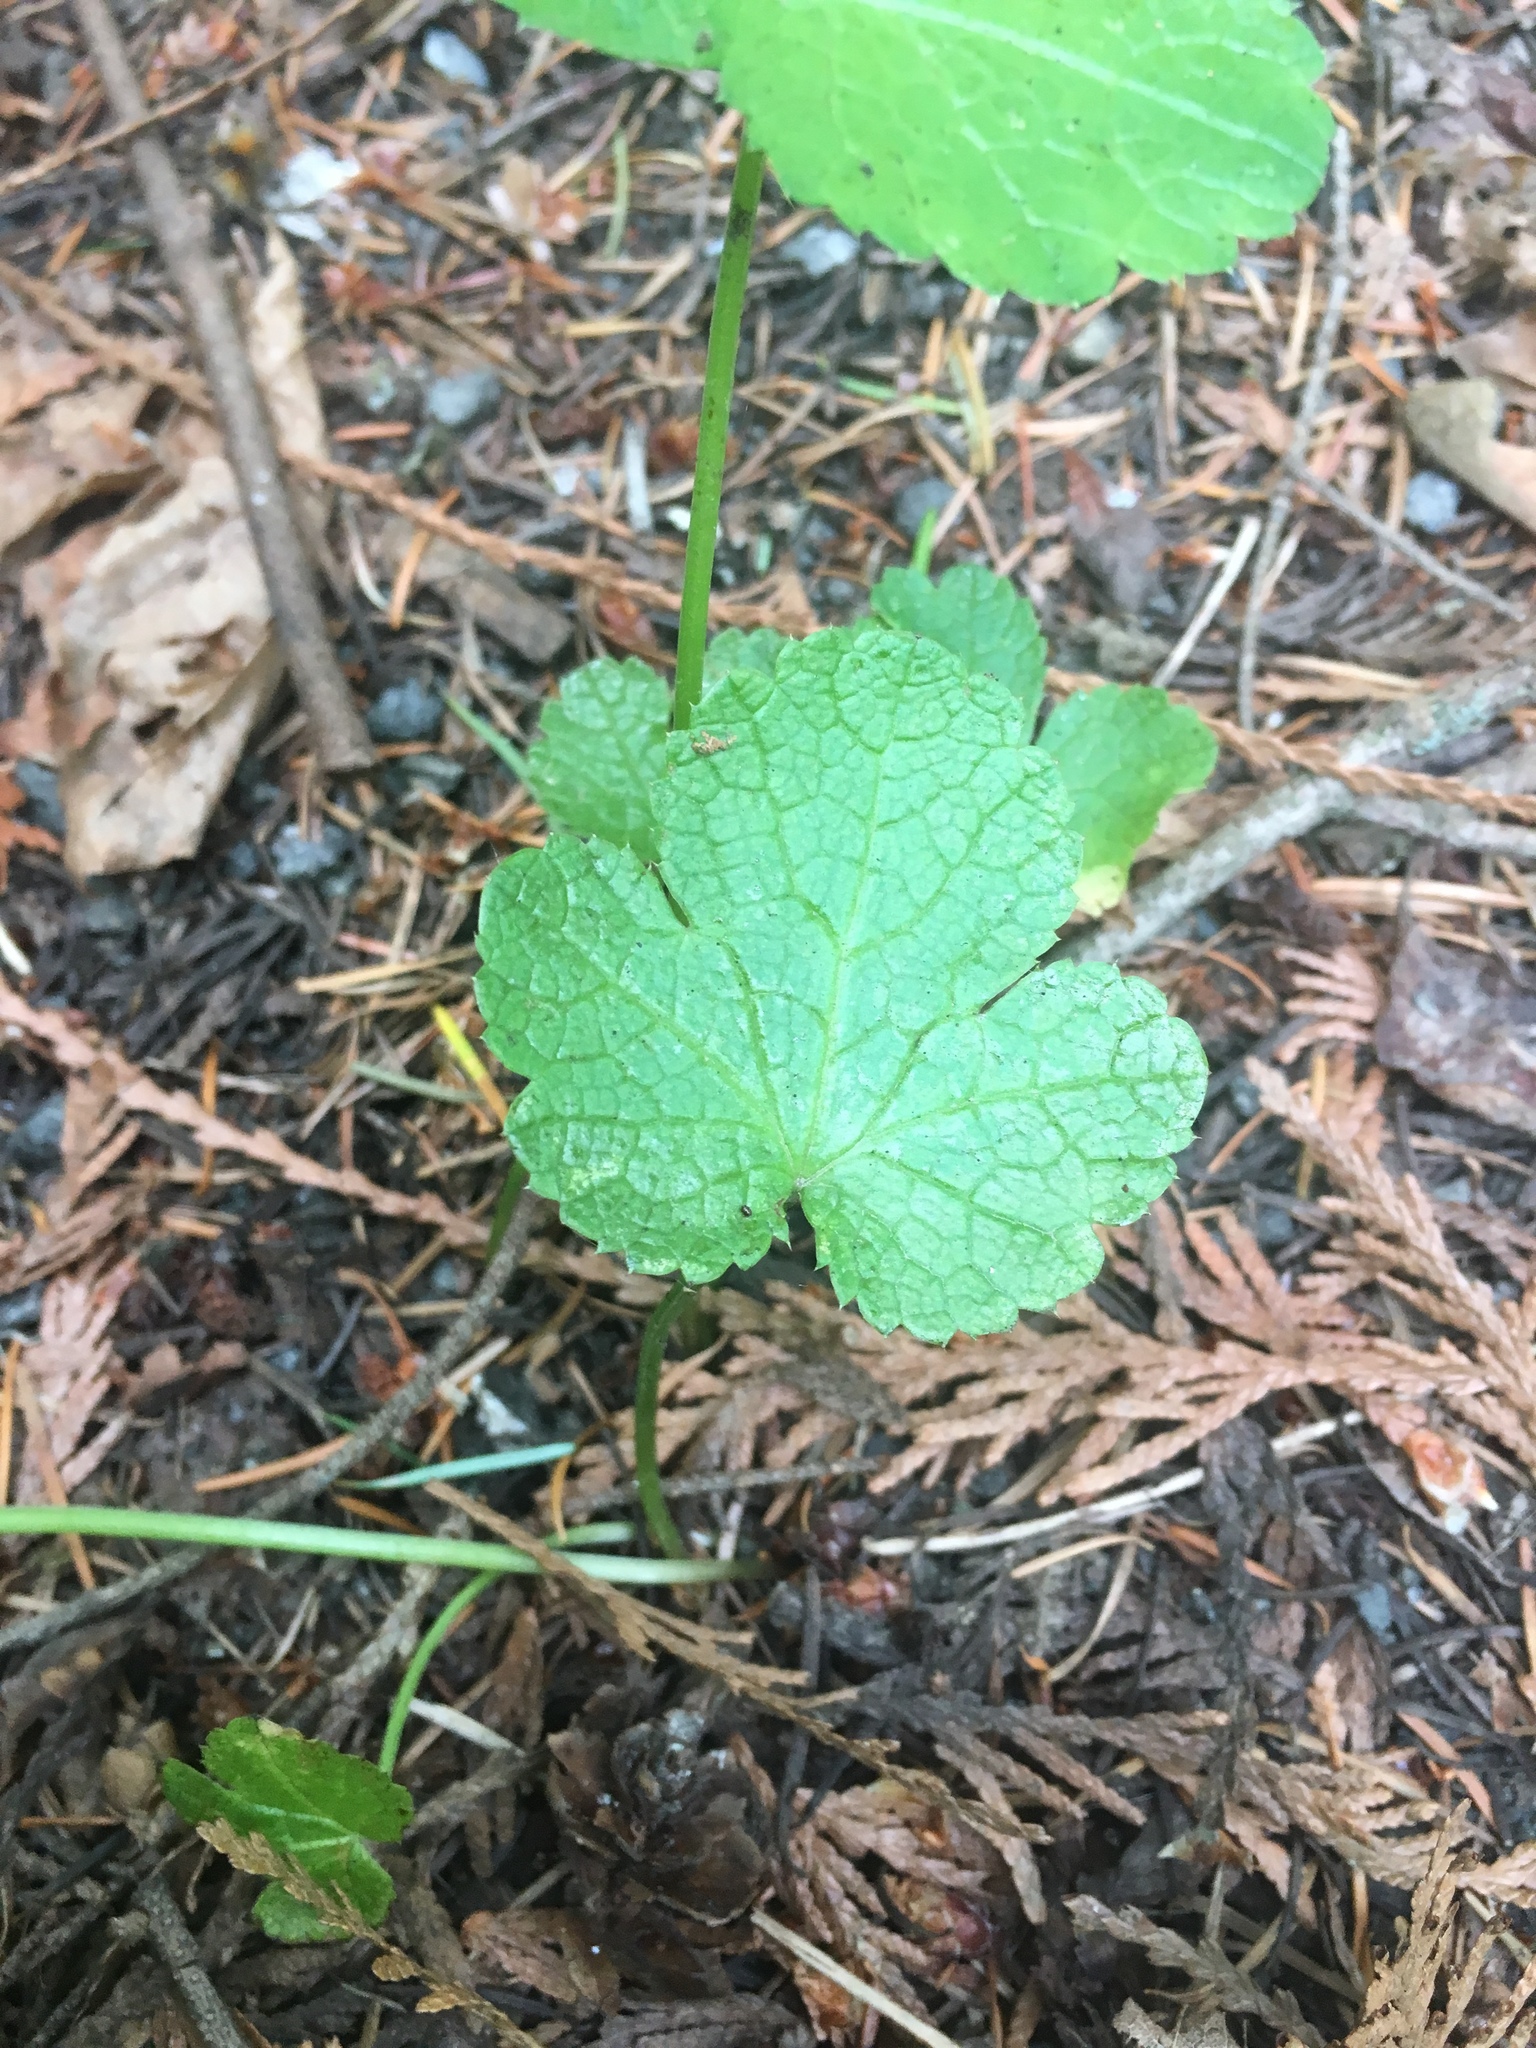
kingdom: Plantae
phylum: Tracheophyta
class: Magnoliopsida
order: Apiales
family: Apiaceae
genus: Sanicula
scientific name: Sanicula crassicaulis
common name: Western snakeroot
